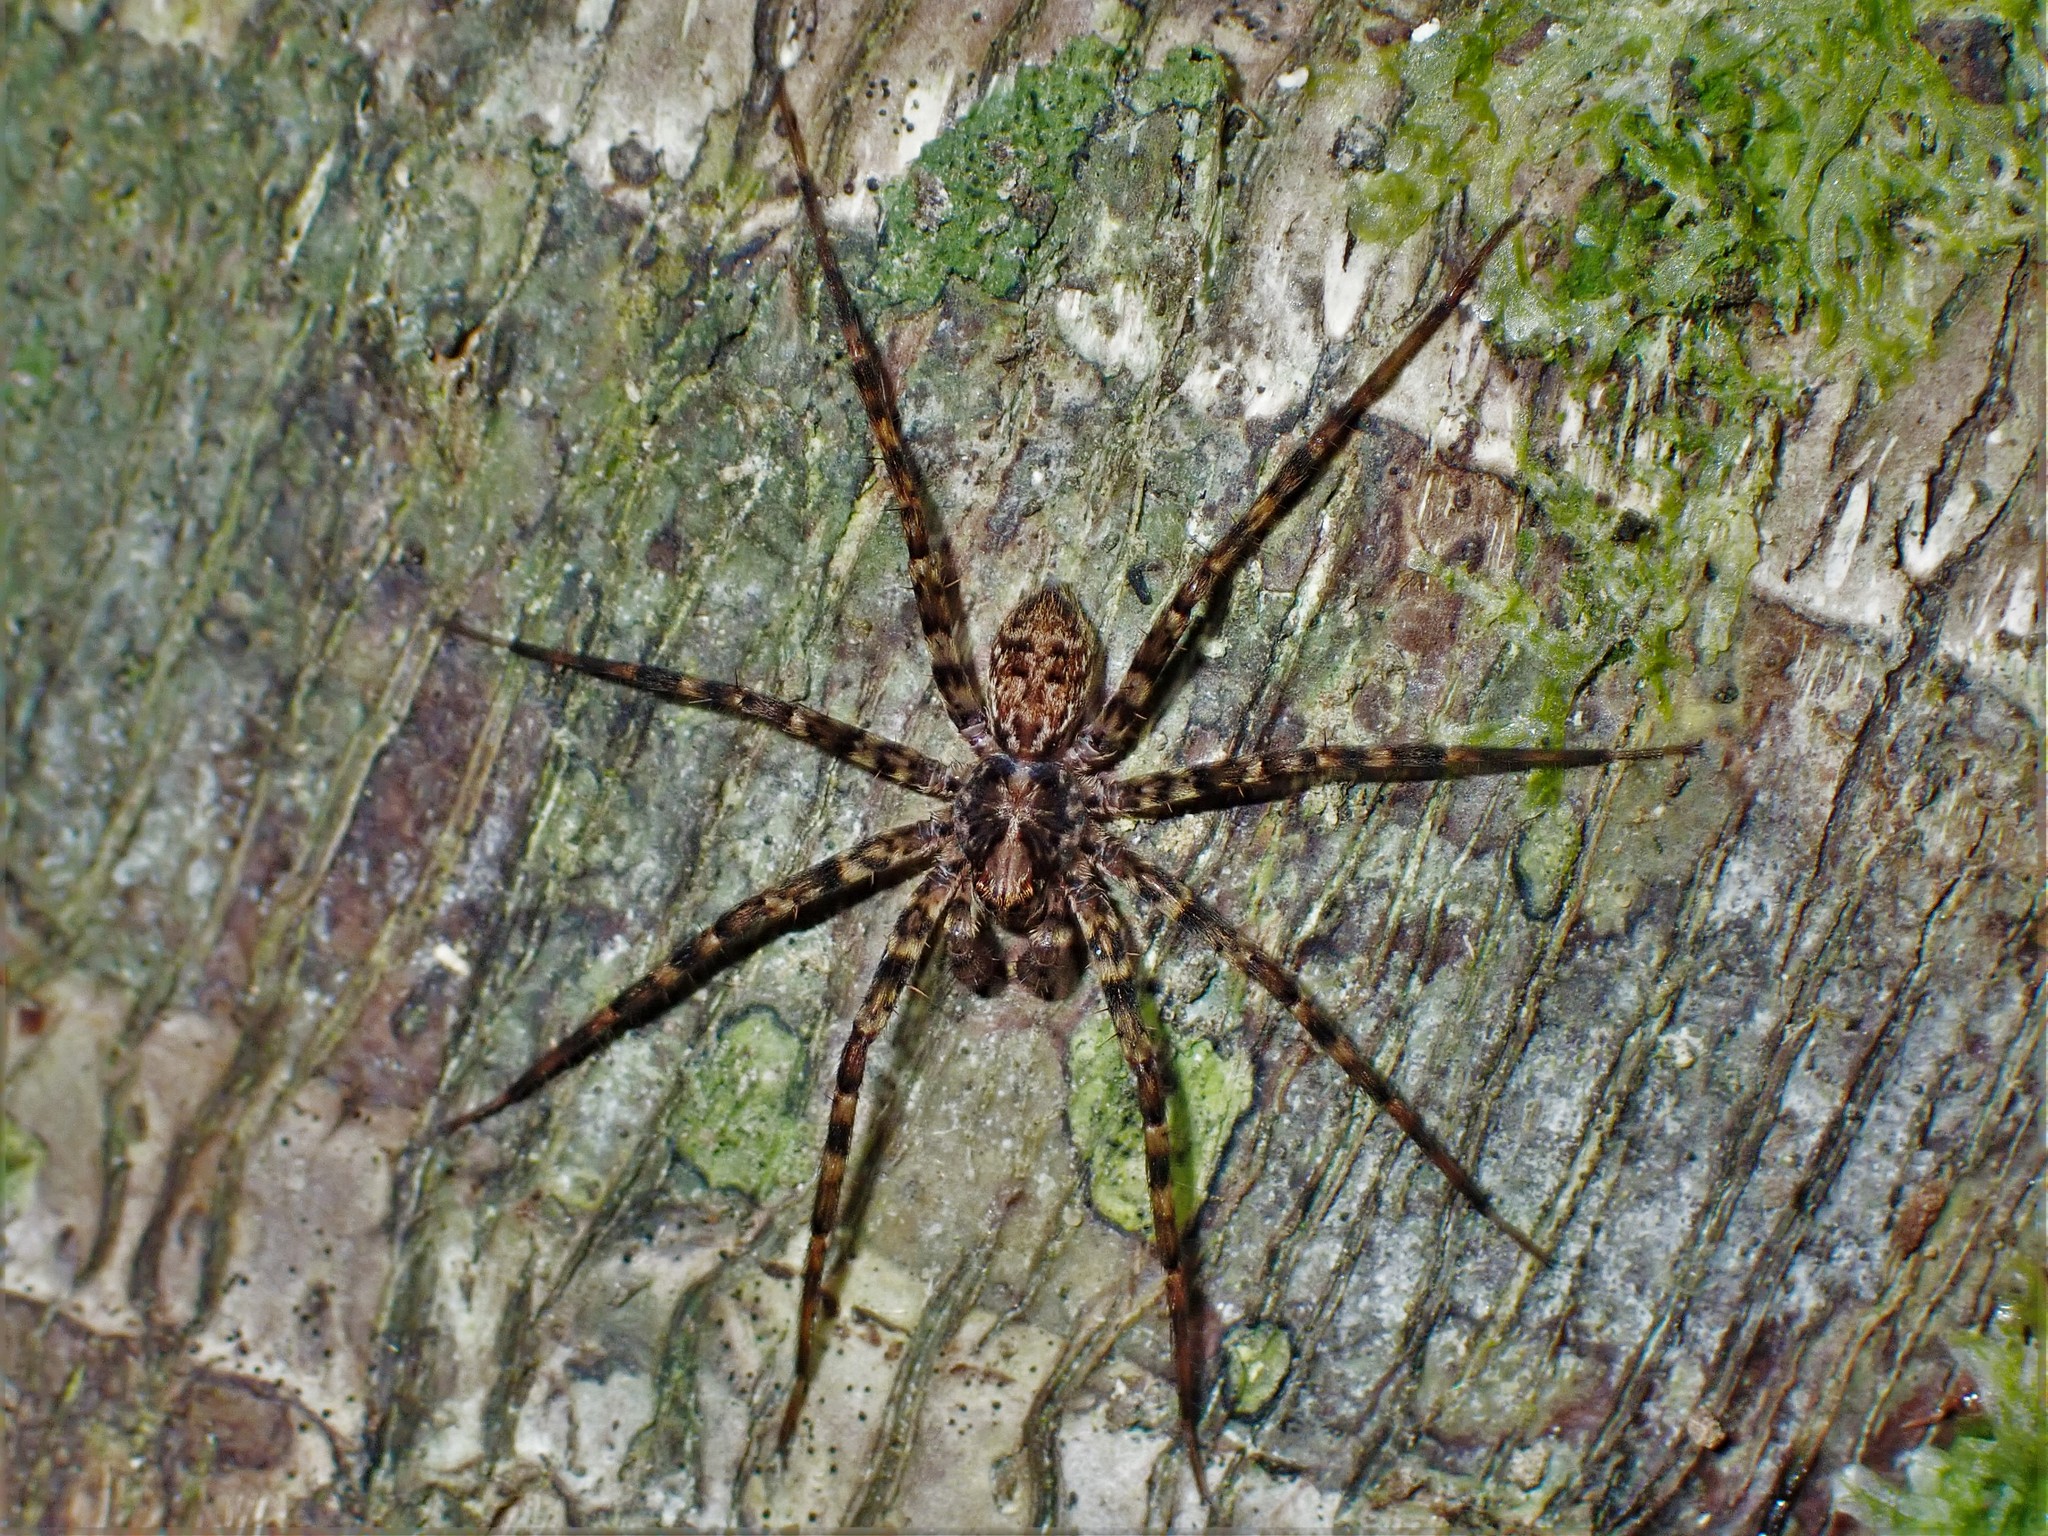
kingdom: Animalia
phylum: Arthropoda
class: Arachnida
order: Araneae
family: Cycloctenidae
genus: Cycloctenus
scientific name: Cycloctenus
